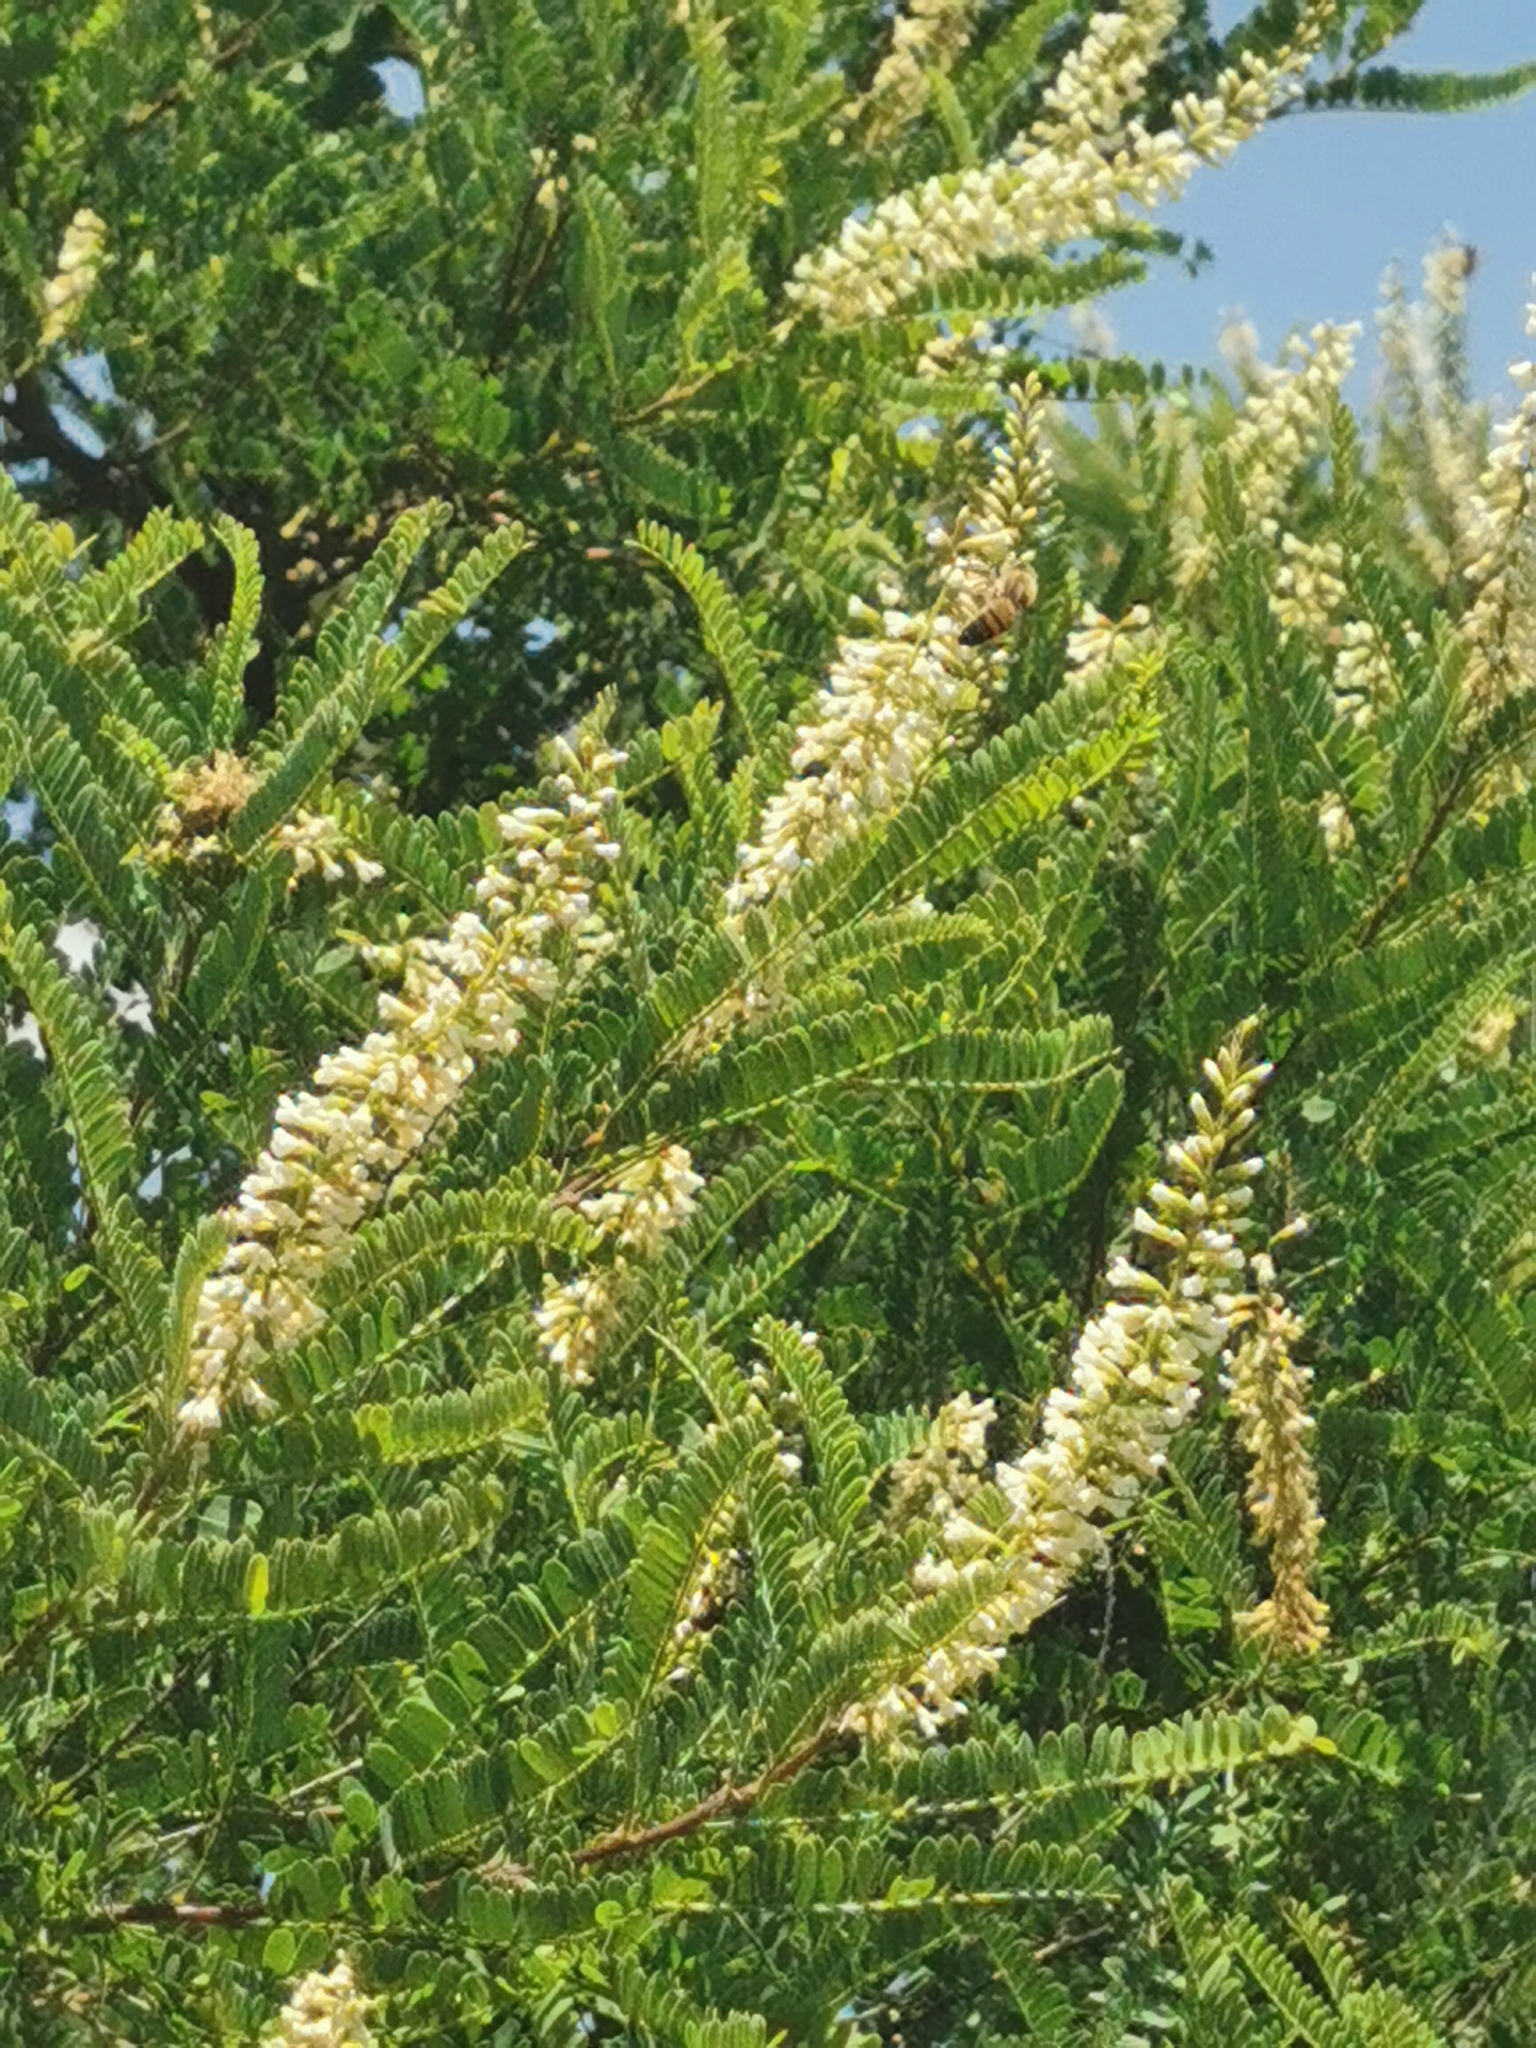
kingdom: Plantae
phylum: Tracheophyta
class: Magnoliopsida
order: Fabales
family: Fabaceae
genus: Eysenhardtia
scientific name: Eysenhardtia polystachya
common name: Kidneywood
